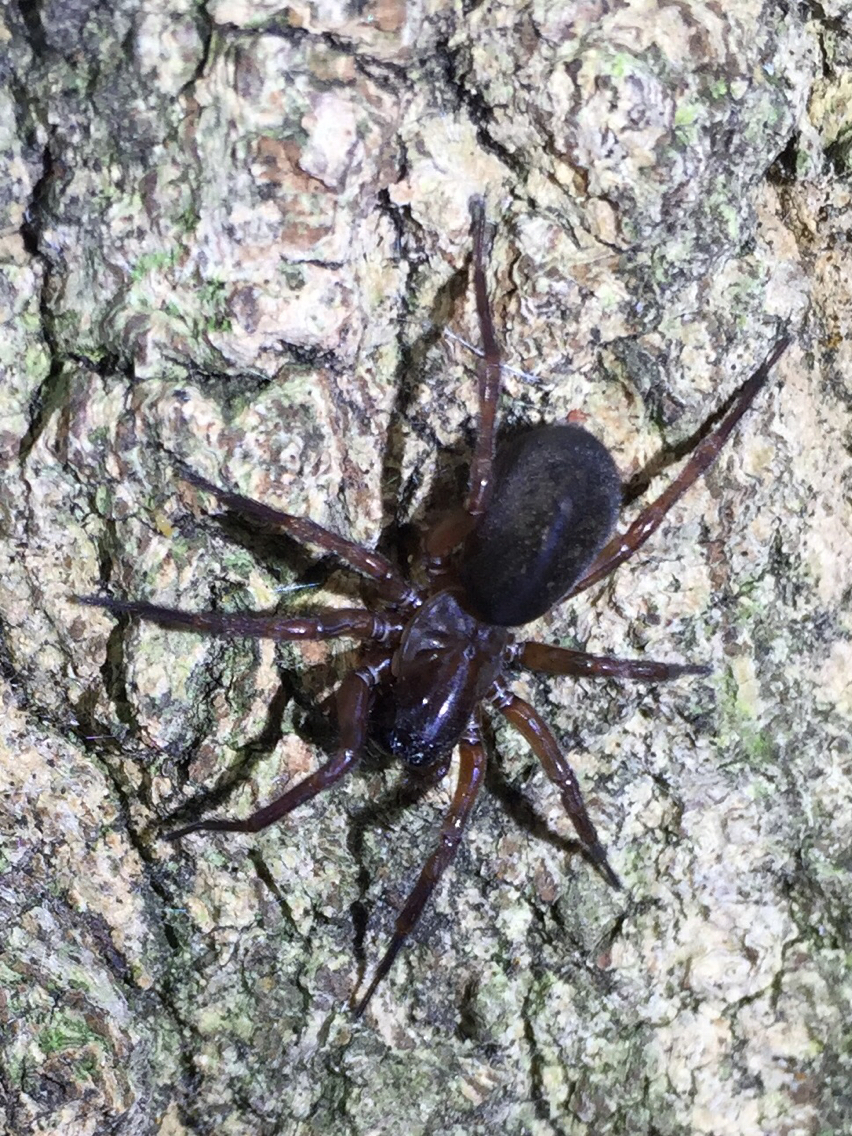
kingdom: Animalia
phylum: Arthropoda
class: Arachnida
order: Araneae
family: Agelenidae
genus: Wadotes
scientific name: Wadotes
